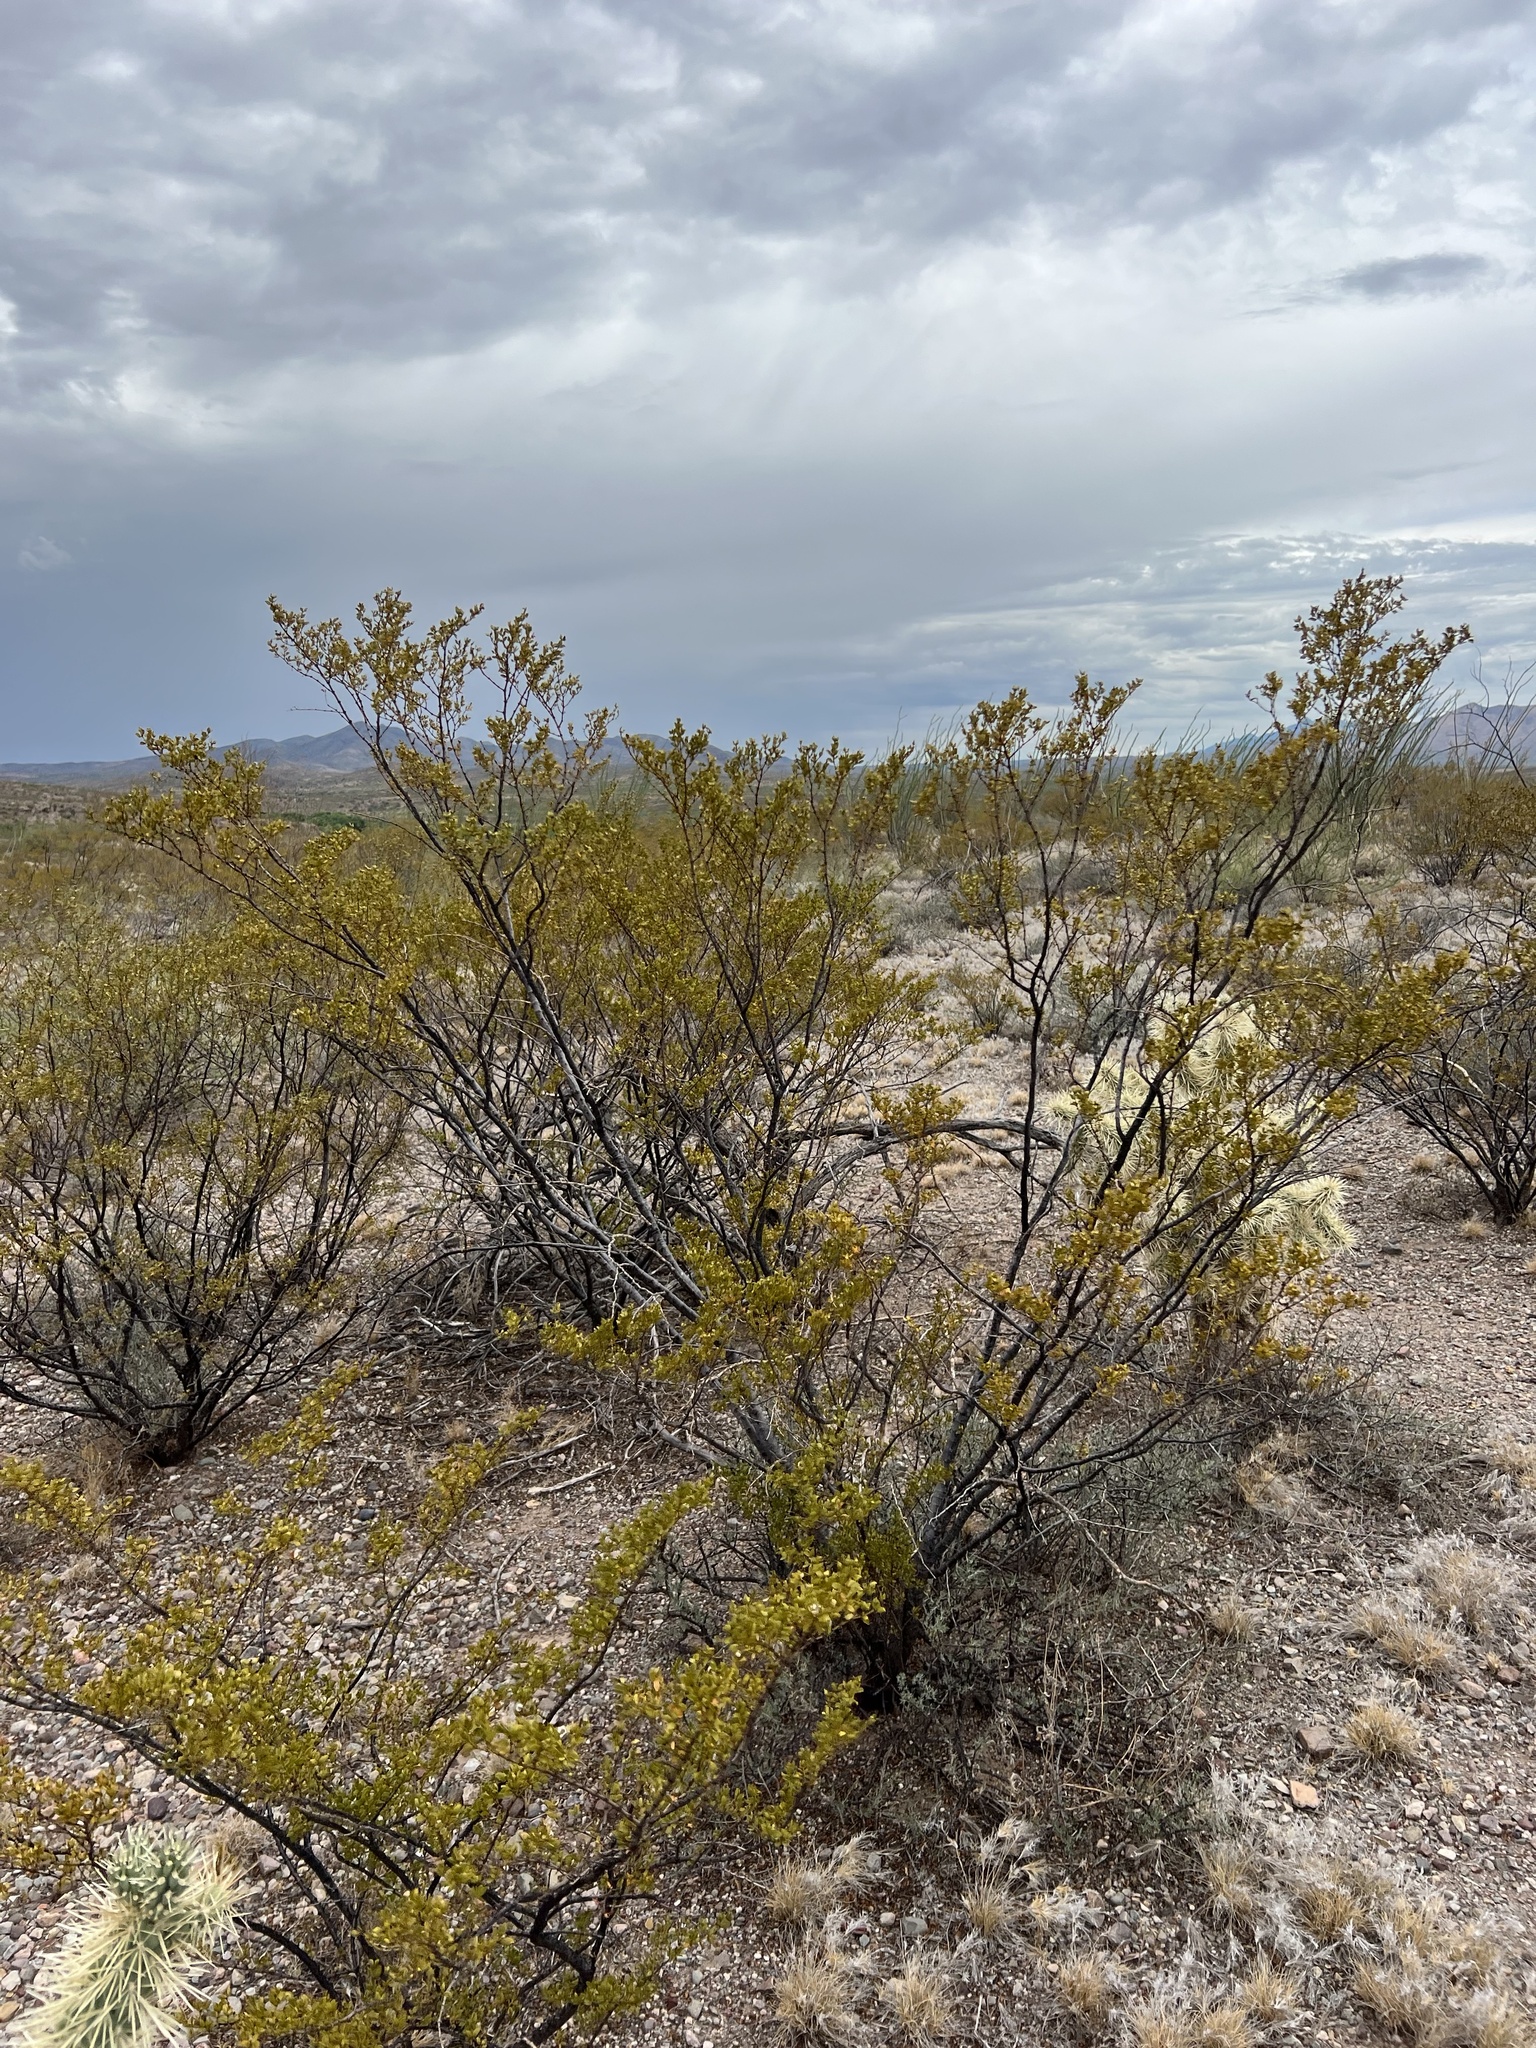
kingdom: Plantae
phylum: Tracheophyta
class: Magnoliopsida
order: Zygophyllales
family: Zygophyllaceae
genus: Larrea
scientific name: Larrea tridentata
